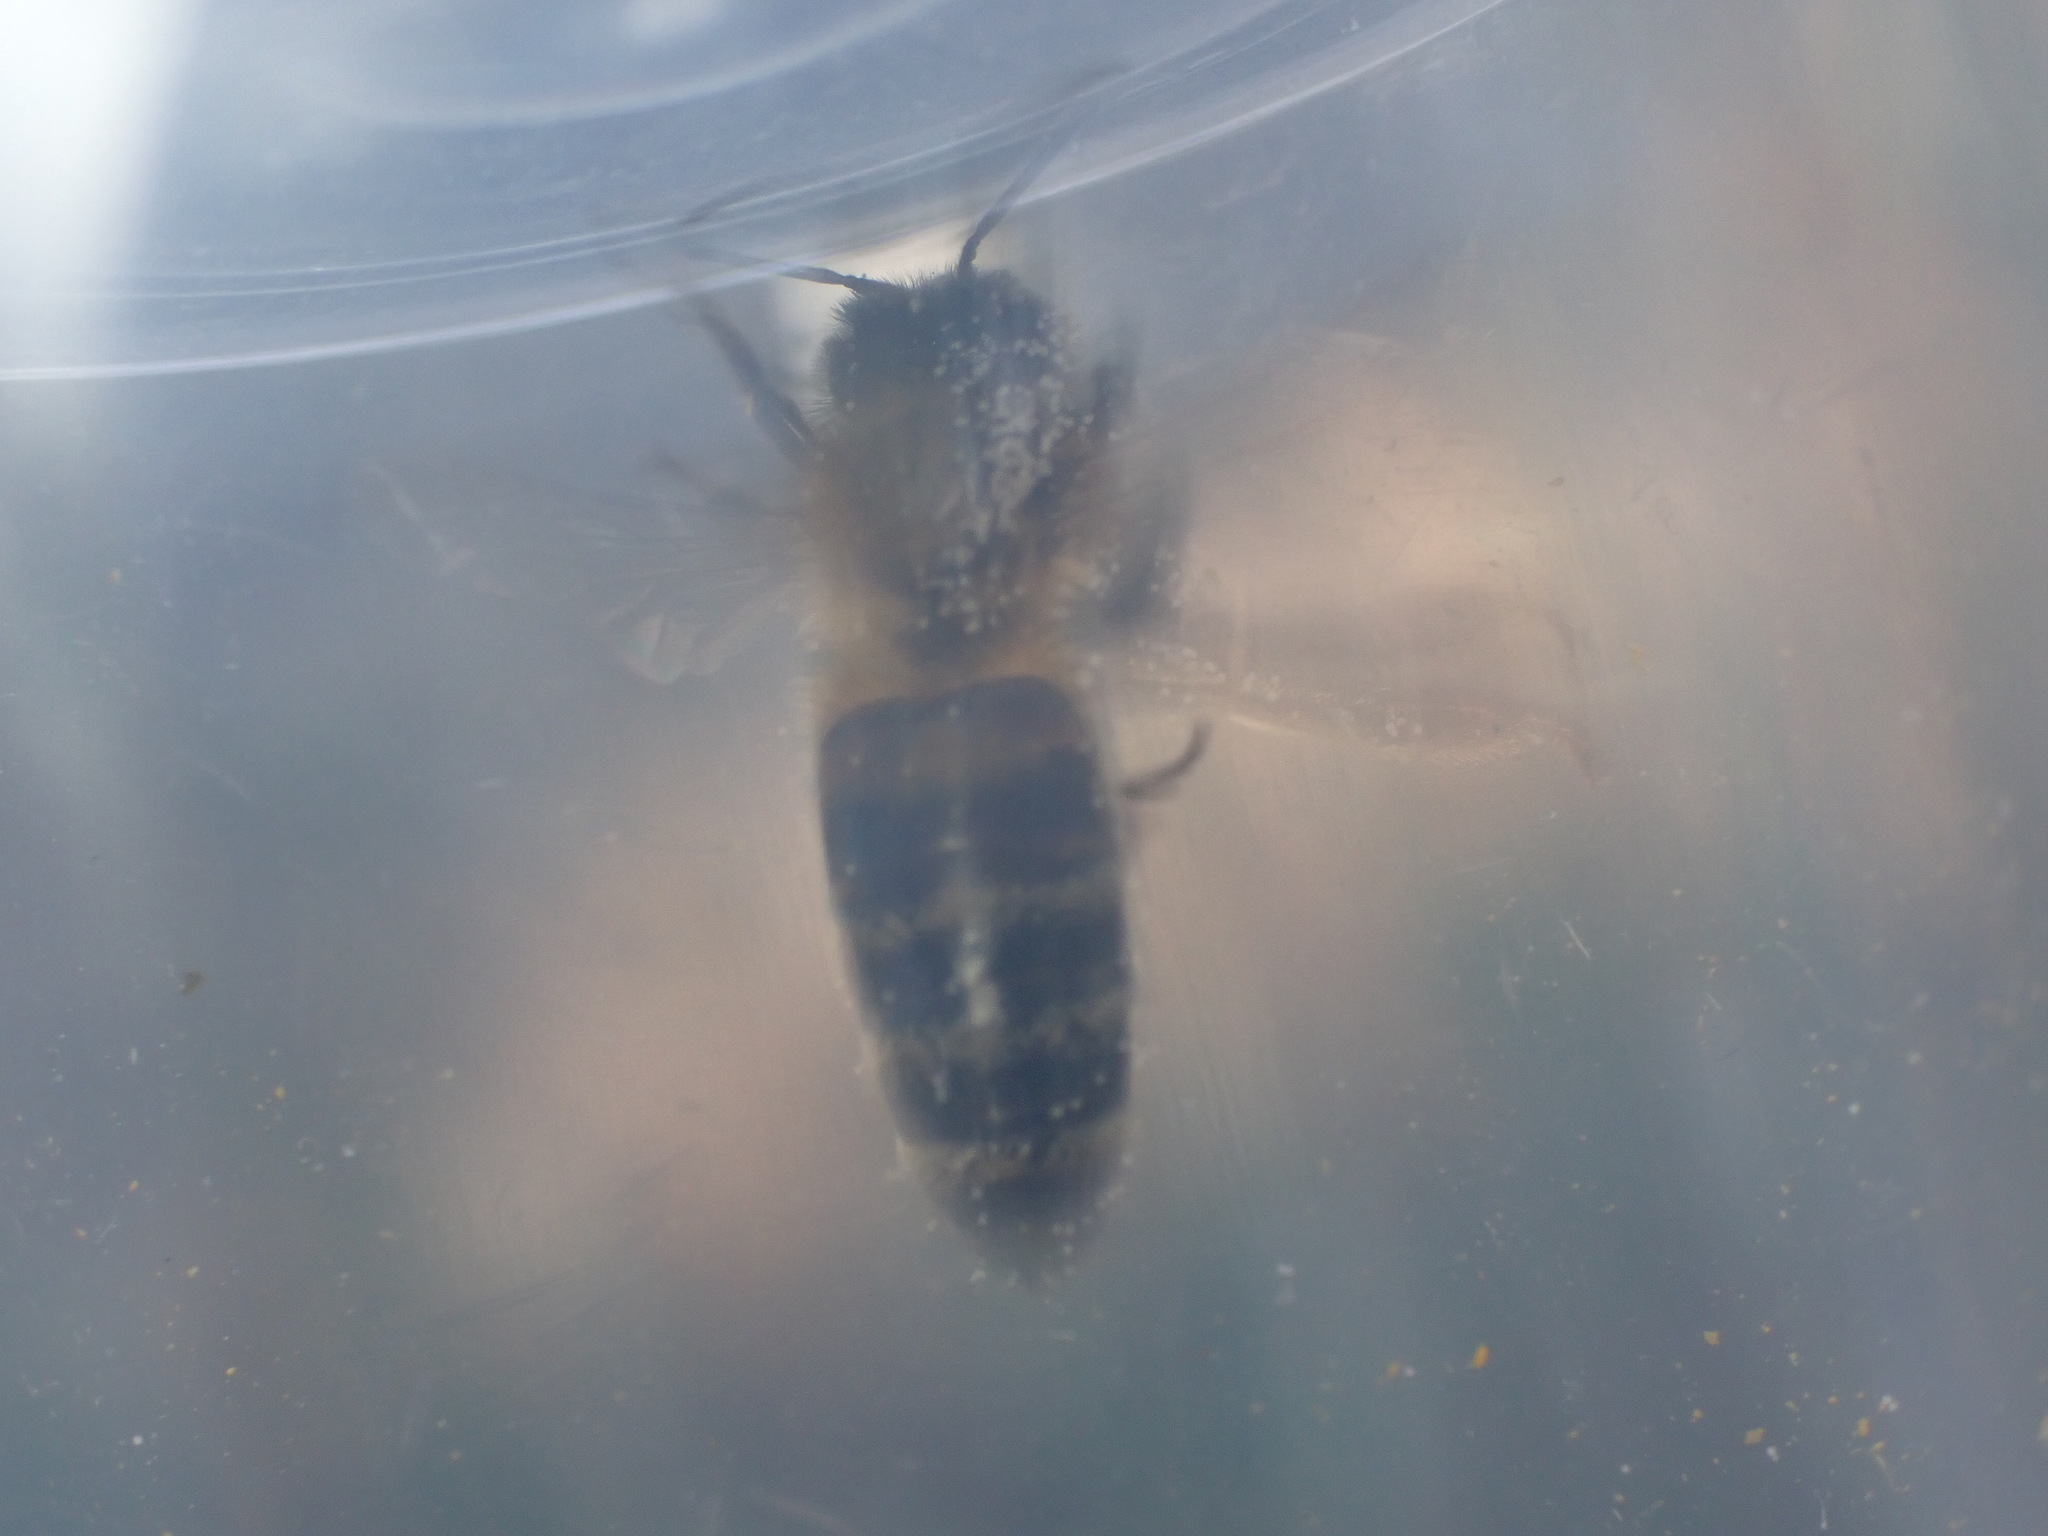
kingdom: Animalia
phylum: Arthropoda
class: Insecta
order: Hymenoptera
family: Apidae
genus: Apis
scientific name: Apis mellifera
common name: Honey bee
